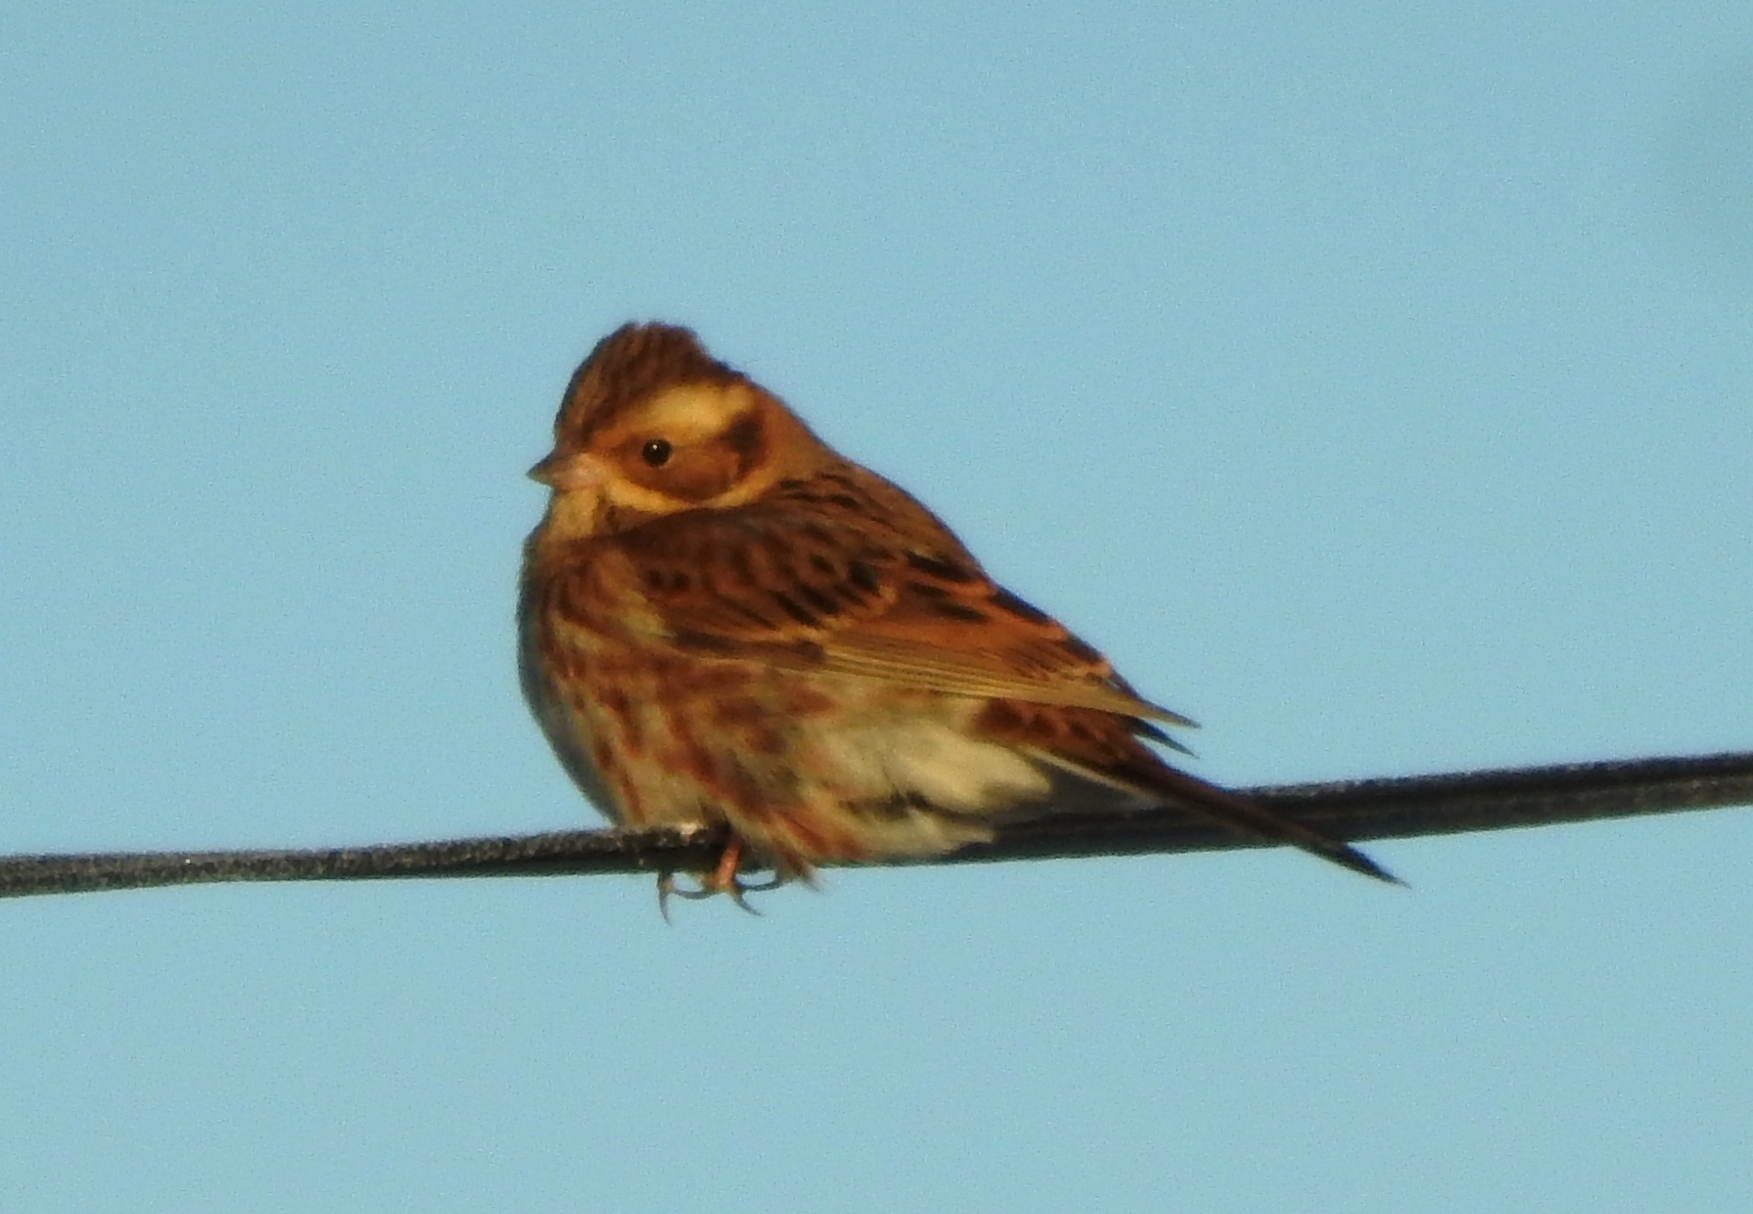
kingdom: Animalia
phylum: Chordata
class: Aves
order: Passeriformes
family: Emberizidae
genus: Emberiza
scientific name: Emberiza rustica
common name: Rustic bunting
